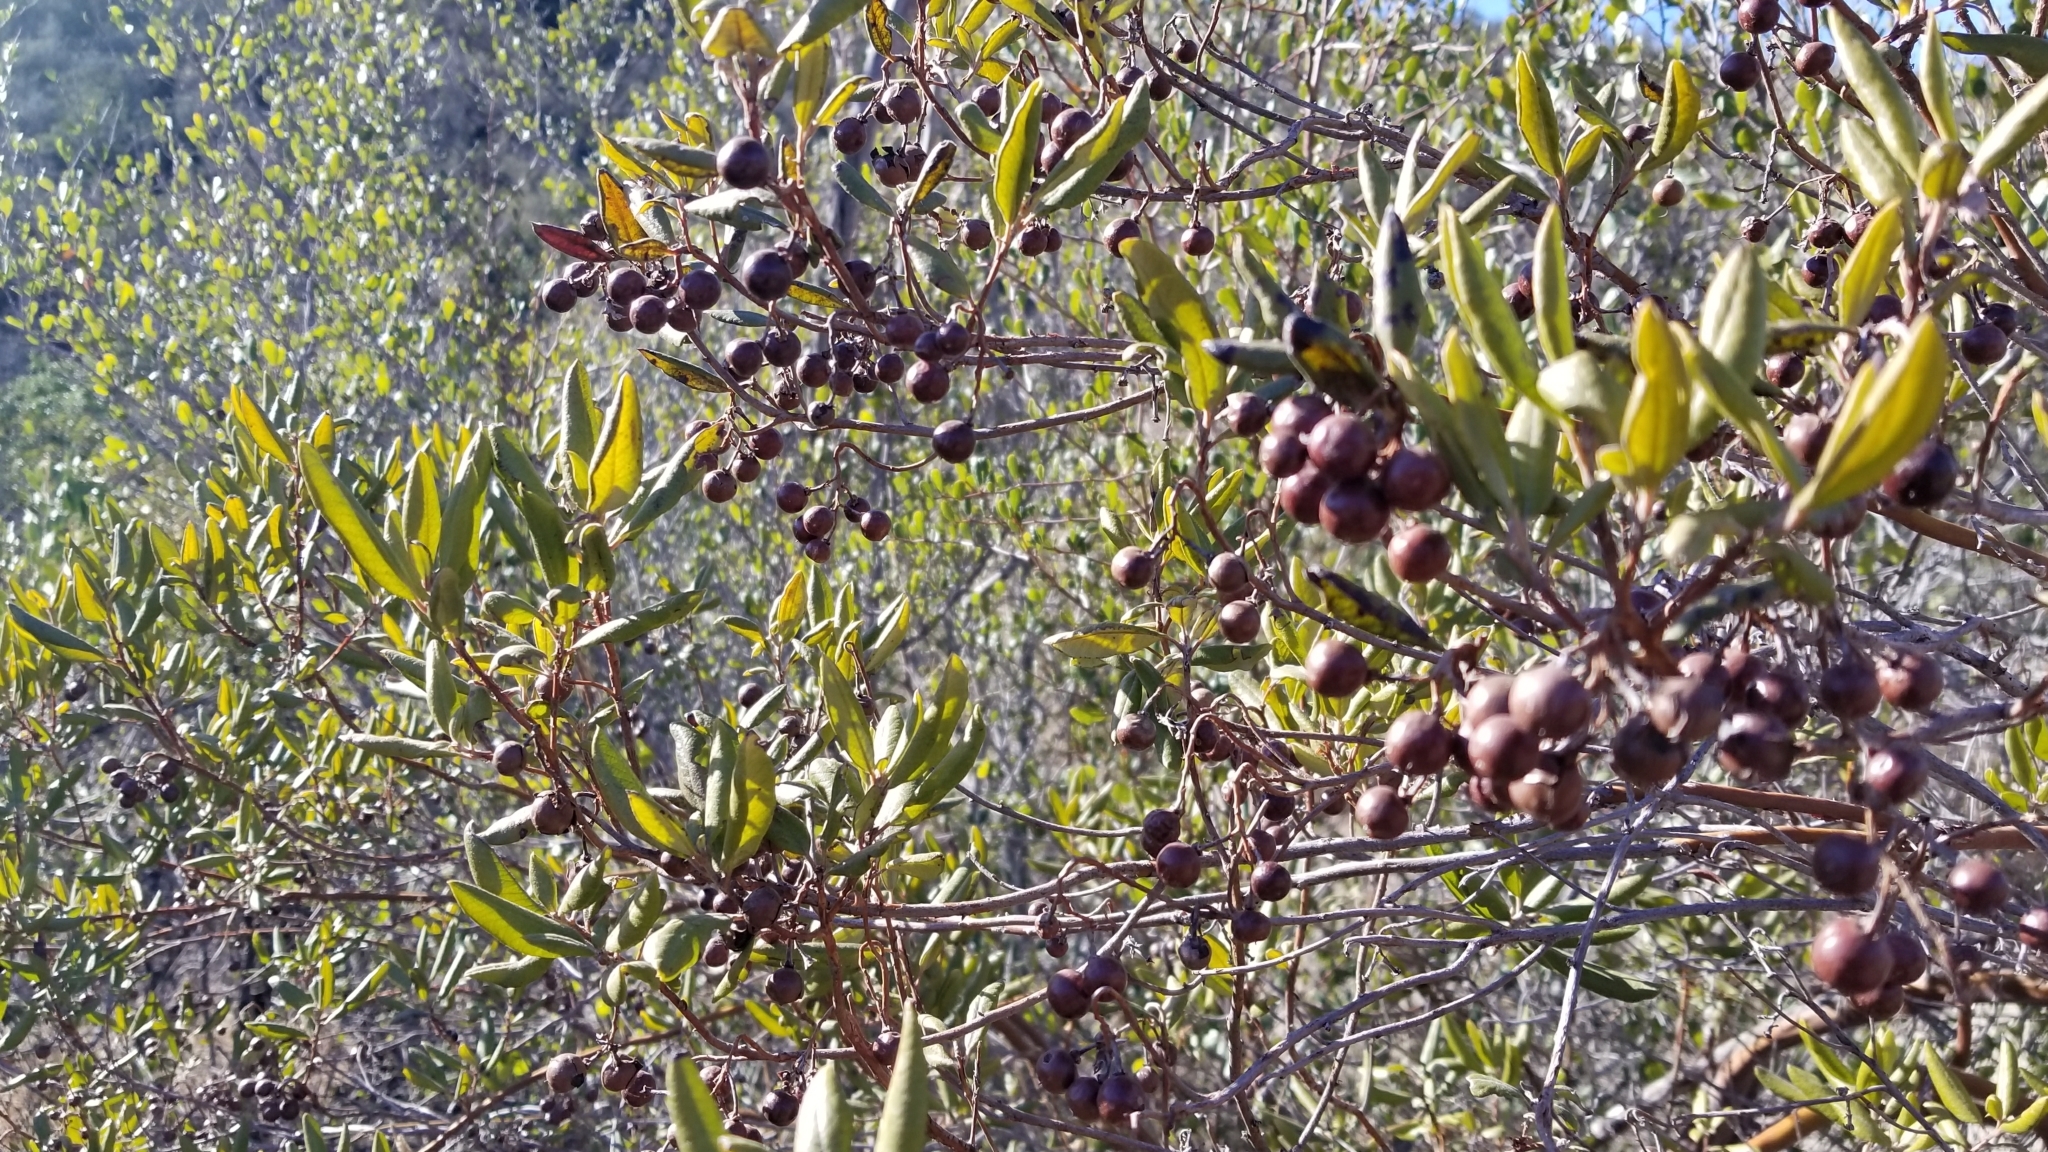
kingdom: Plantae
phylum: Tracheophyta
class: Magnoliopsida
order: Ericales
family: Ericaceae
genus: Arctostaphylos
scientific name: Arctostaphylos bicolor
